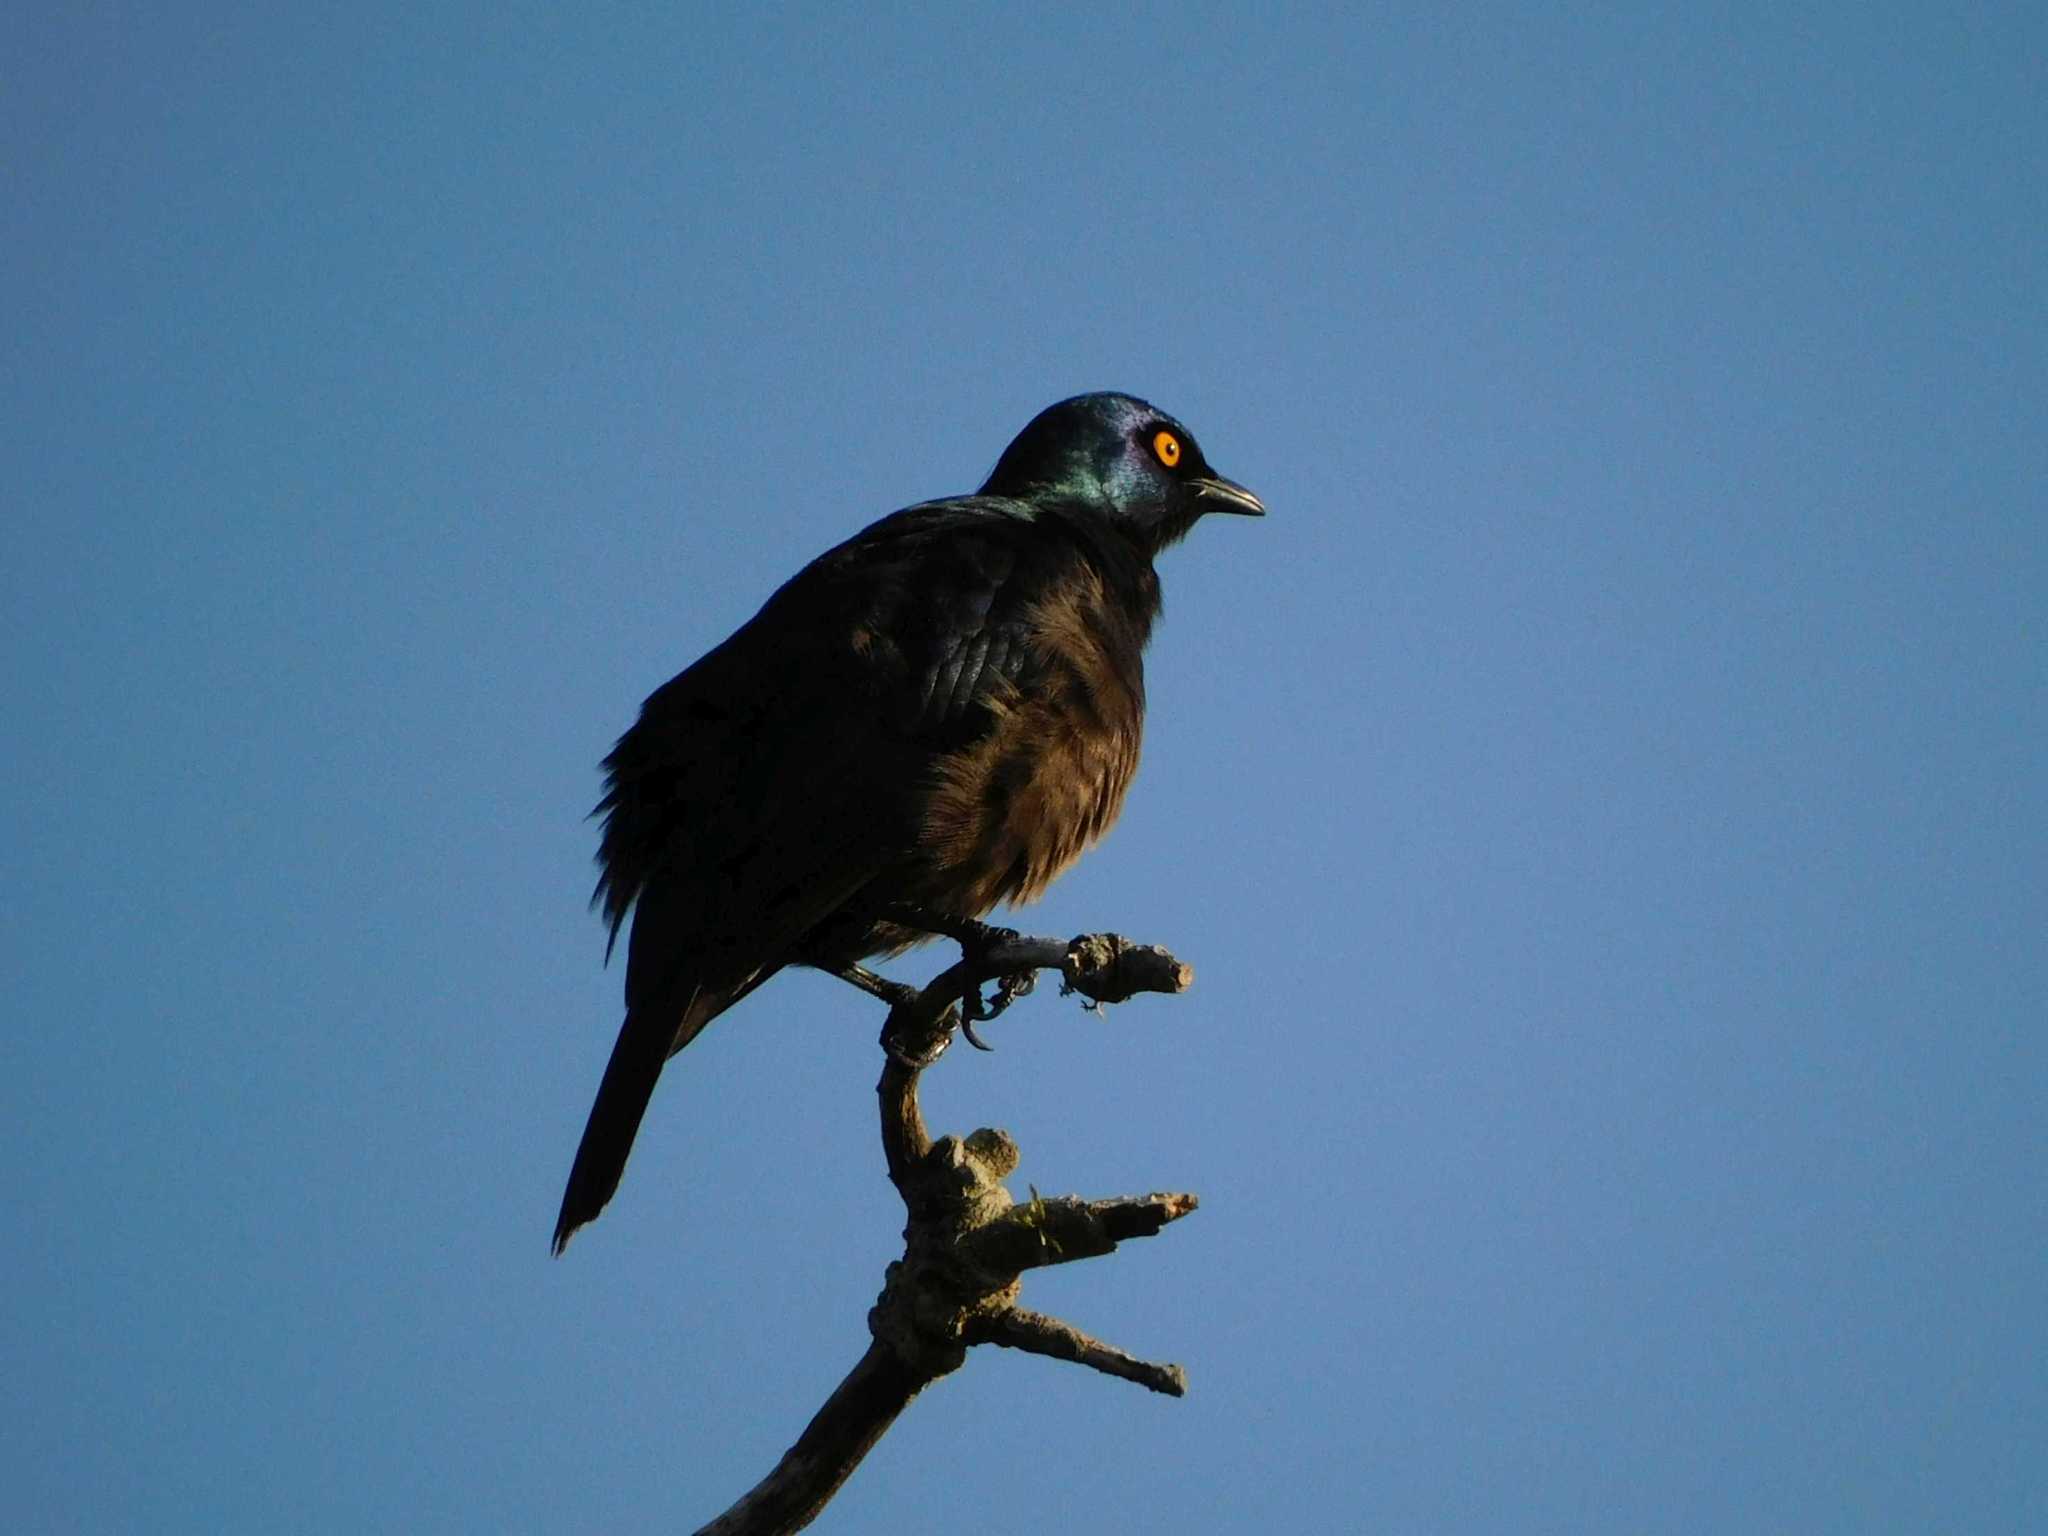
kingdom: Animalia
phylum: Chordata
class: Aves
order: Passeriformes
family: Sturnidae
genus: Notopholia
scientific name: Notopholia corrusca
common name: Black-bellied starling
